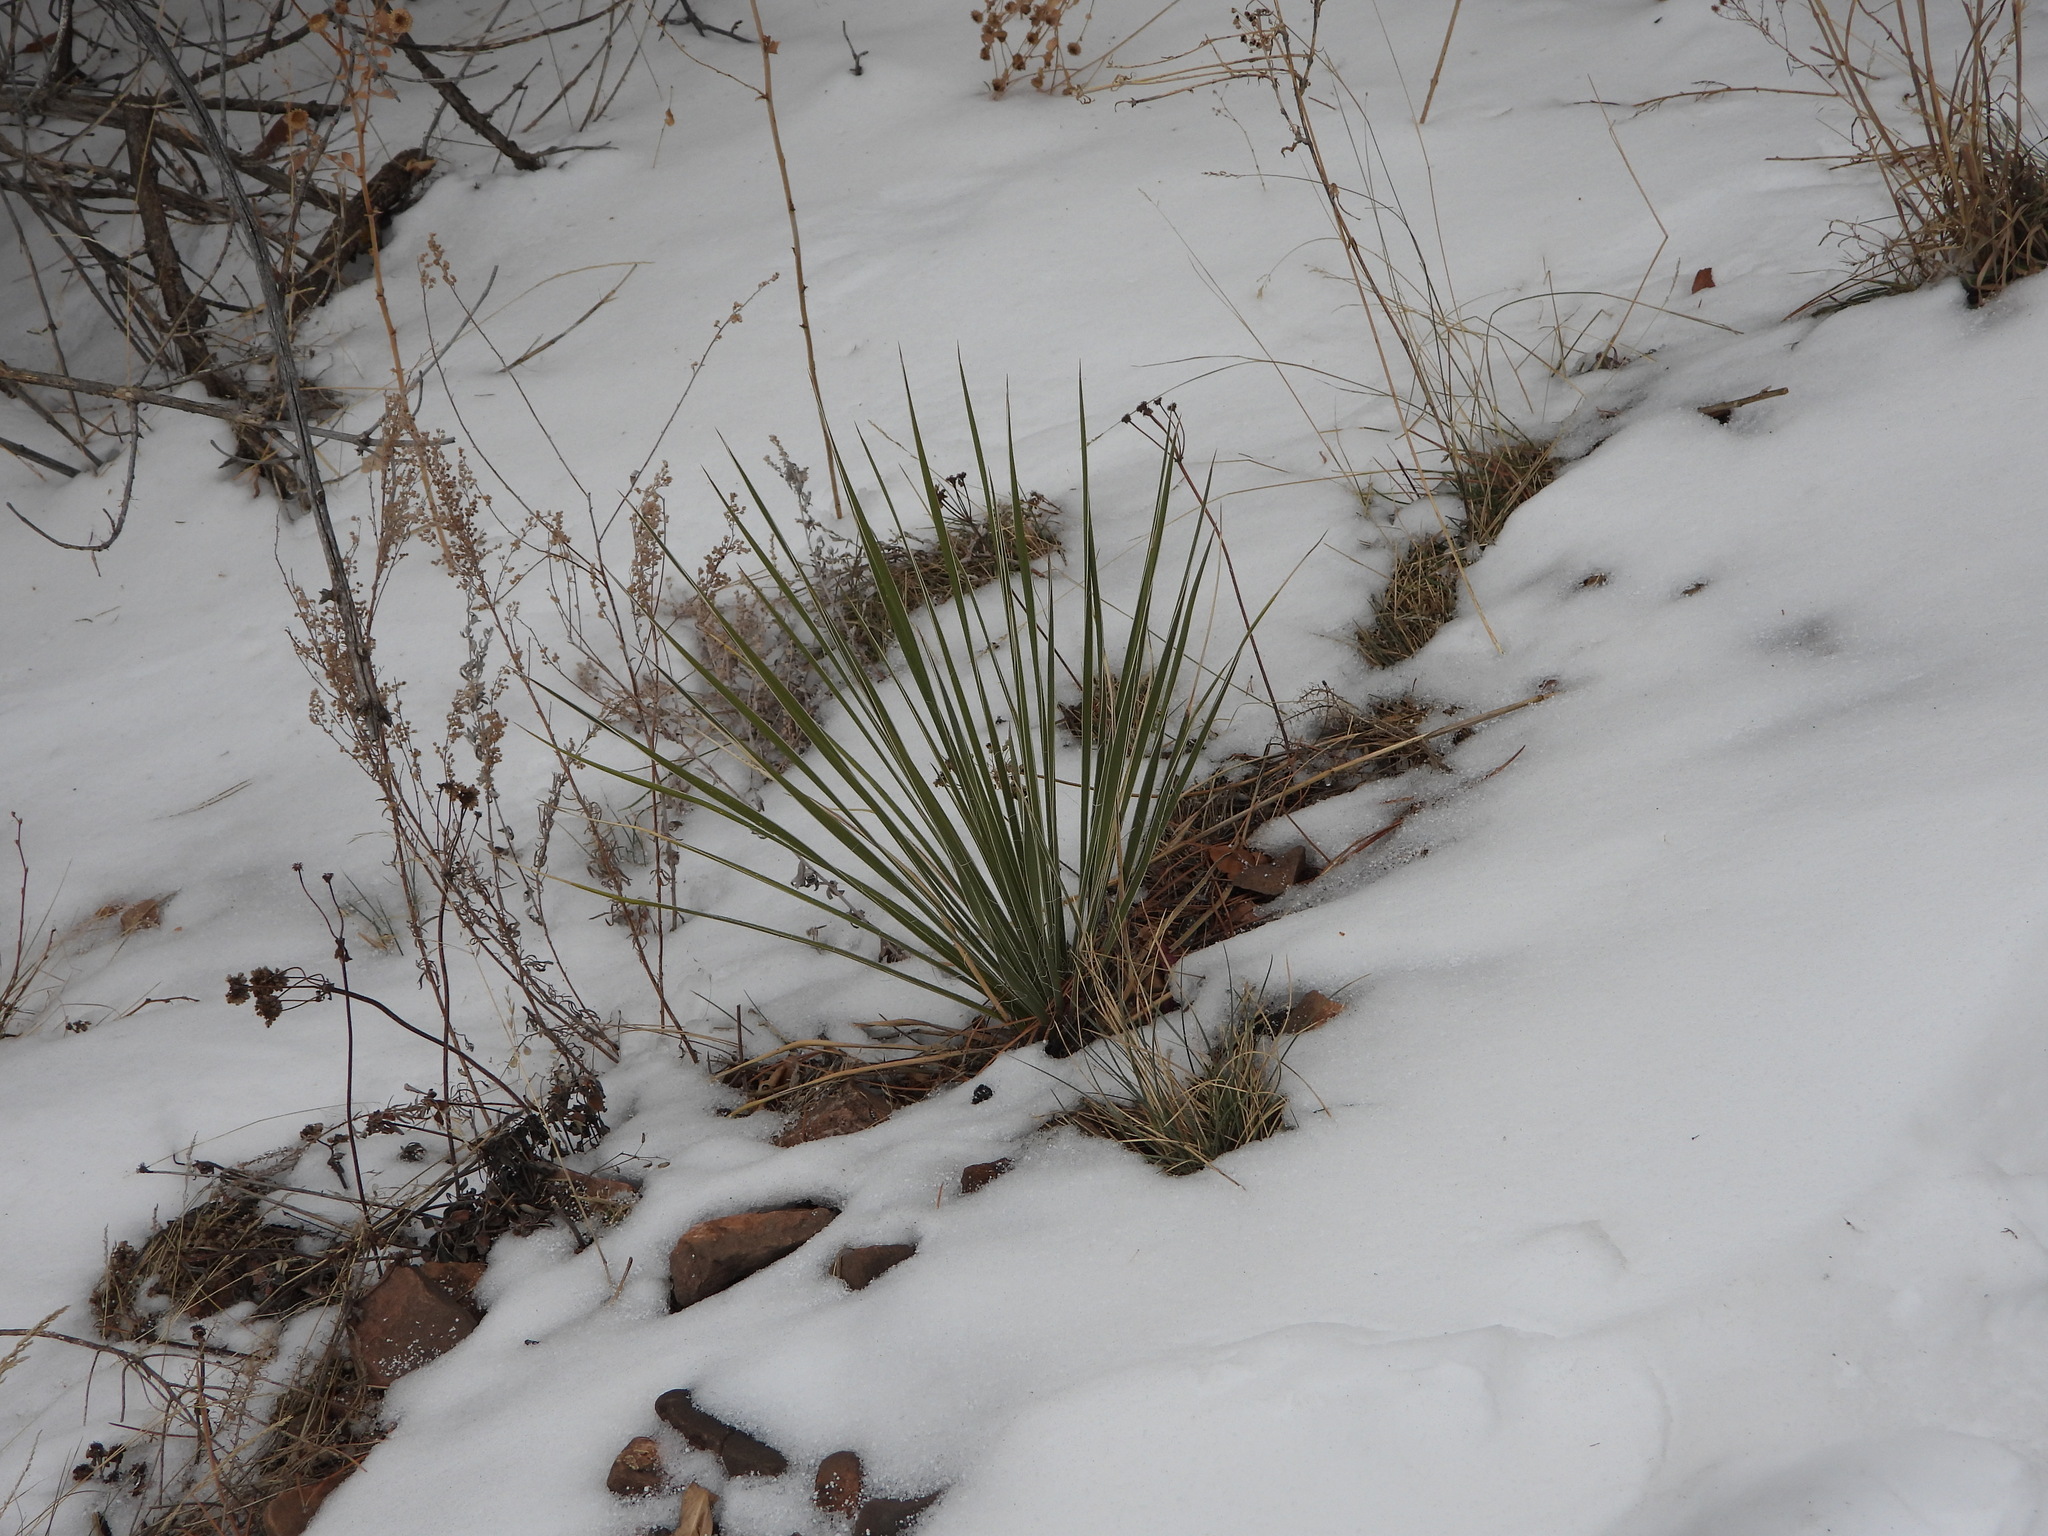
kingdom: Plantae
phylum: Tracheophyta
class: Liliopsida
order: Asparagales
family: Asparagaceae
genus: Yucca
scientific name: Yucca glauca
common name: Great plains yucca
